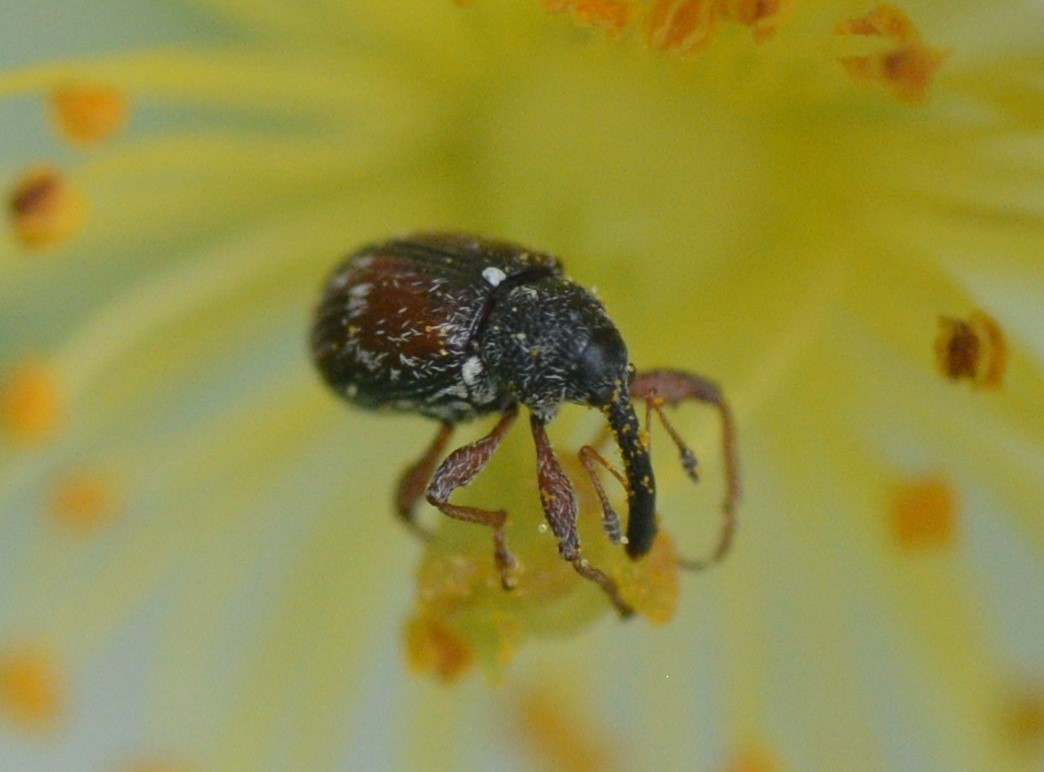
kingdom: Animalia
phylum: Arthropoda
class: Insecta
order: Coleoptera
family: Curculionidae
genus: Anthonomus
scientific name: Anthonomus signatus
